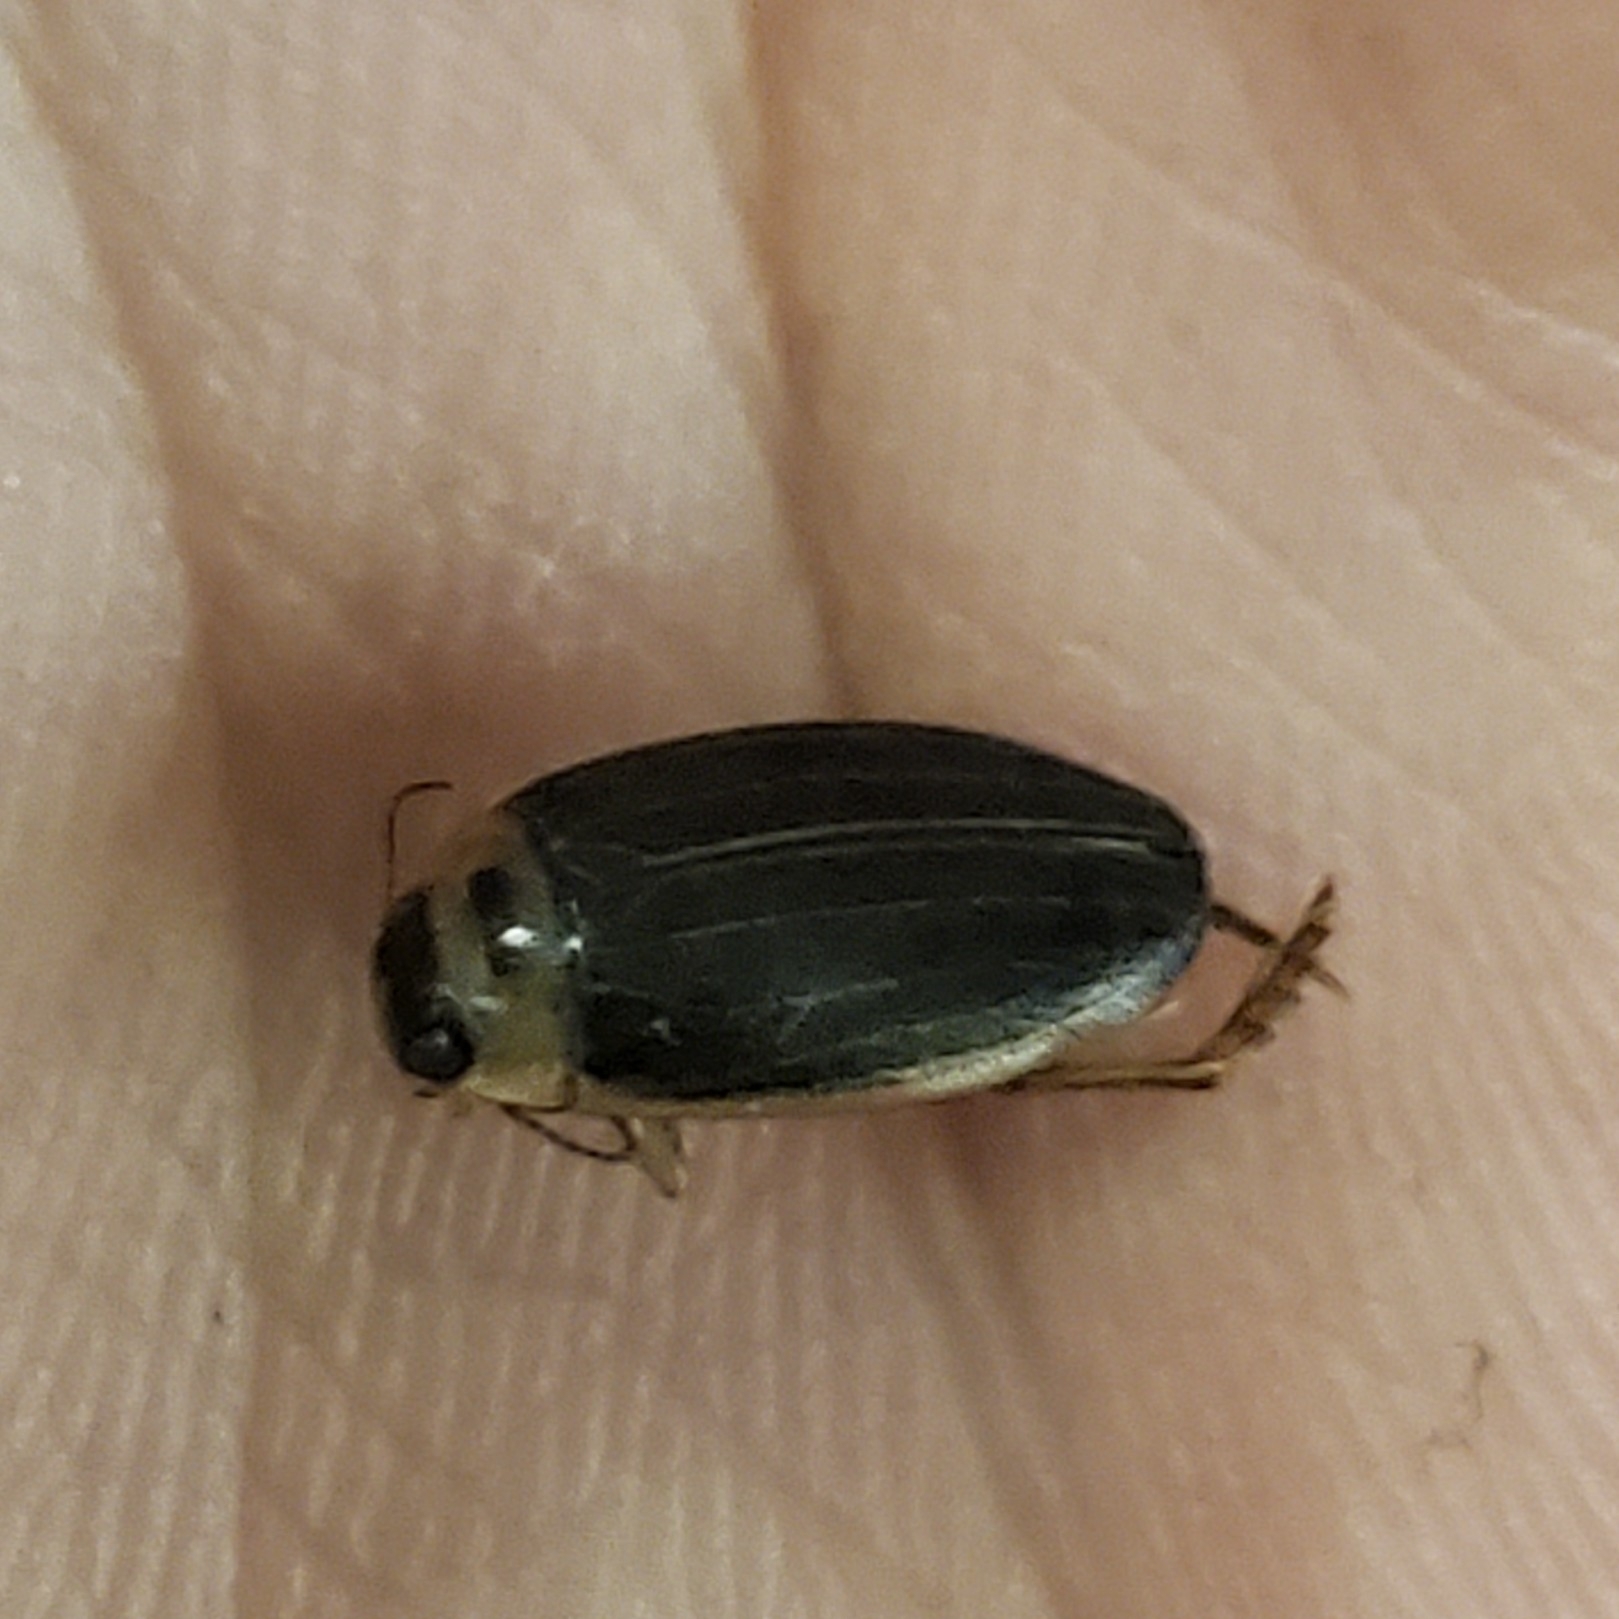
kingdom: Animalia
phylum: Arthropoda
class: Insecta
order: Coleoptera
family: Dytiscidae
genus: Rhantus
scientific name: Rhantus sericans
